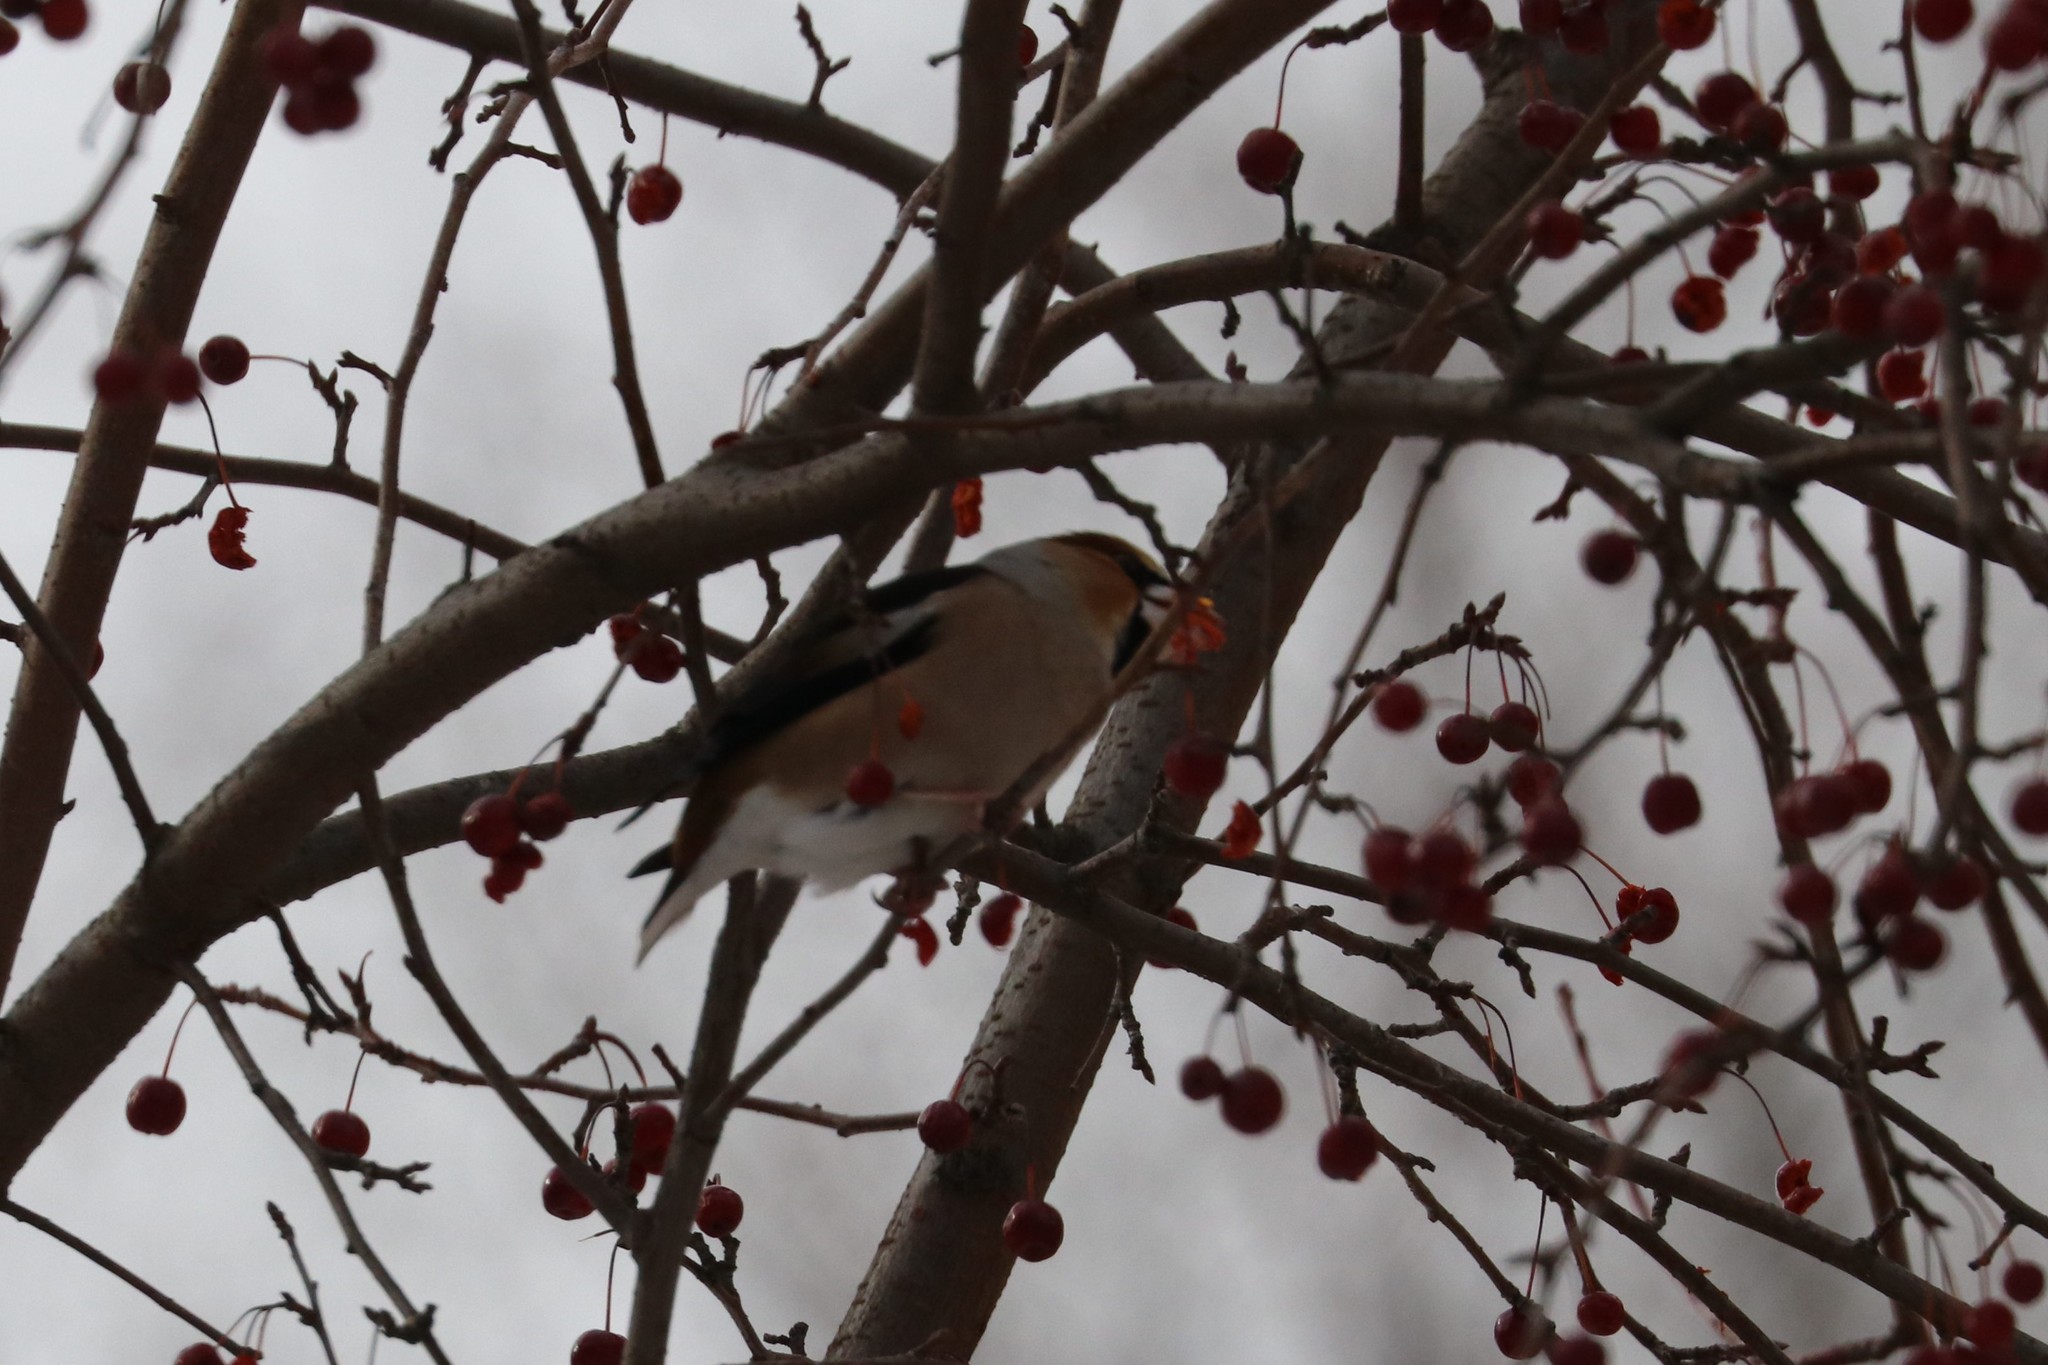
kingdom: Animalia
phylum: Chordata
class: Aves
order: Passeriformes
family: Fringillidae
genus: Coccothraustes
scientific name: Coccothraustes coccothraustes
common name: Hawfinch
